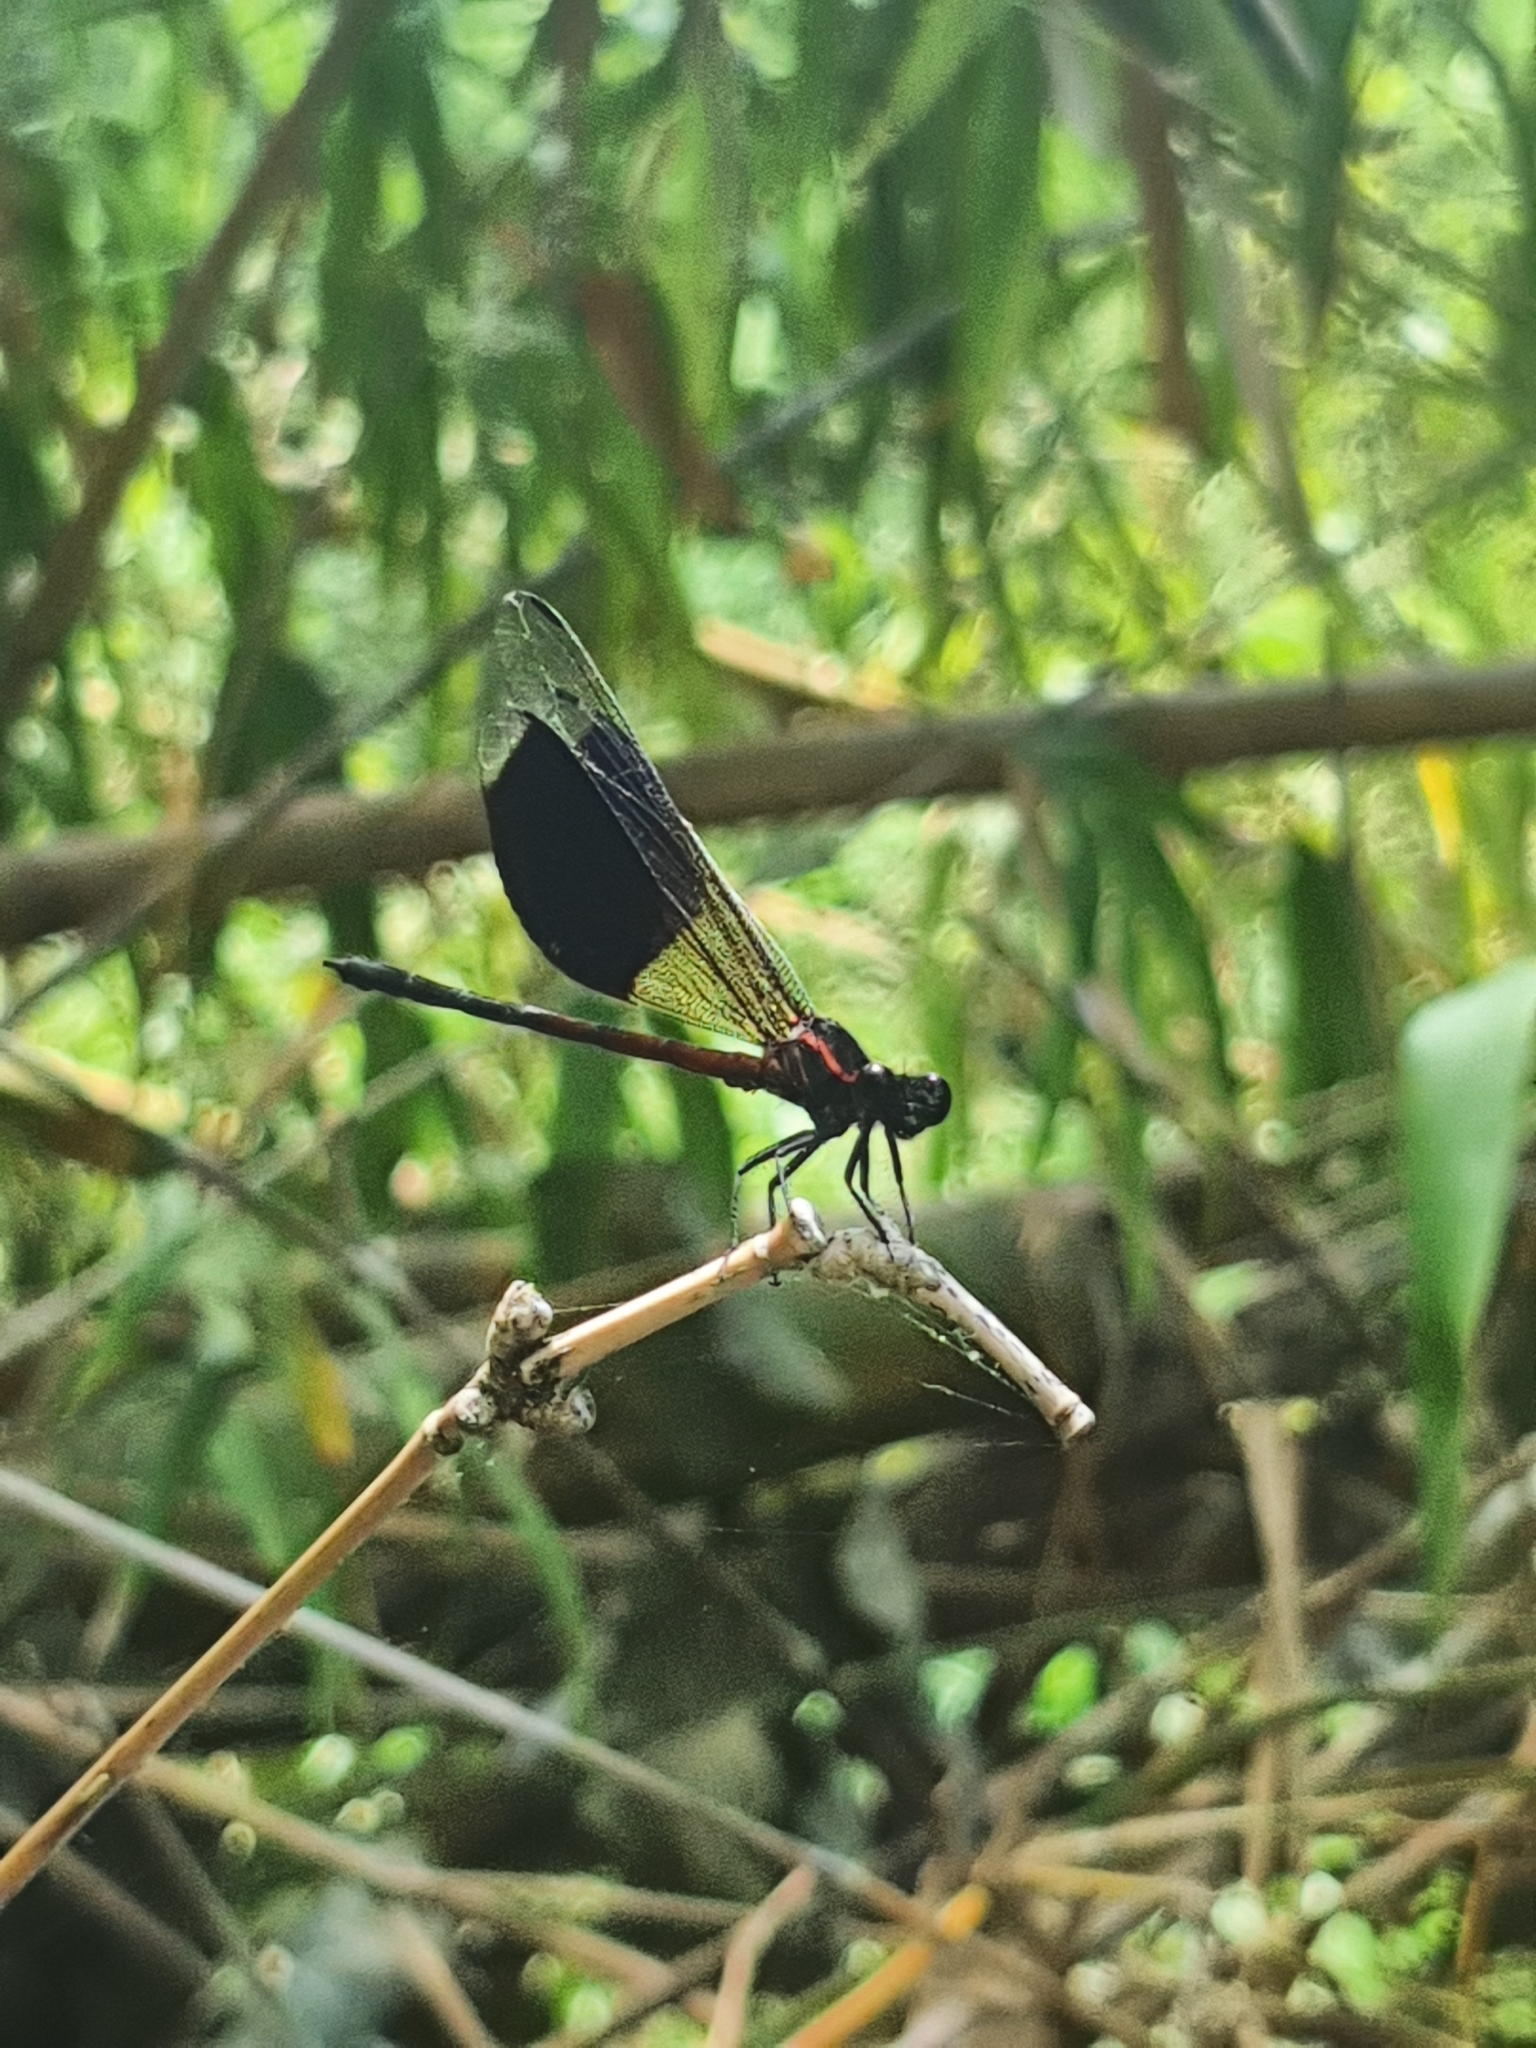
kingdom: Animalia
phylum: Arthropoda
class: Insecta
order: Odonata
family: Euphaeidae
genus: Euphaea
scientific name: Euphaea formosa
